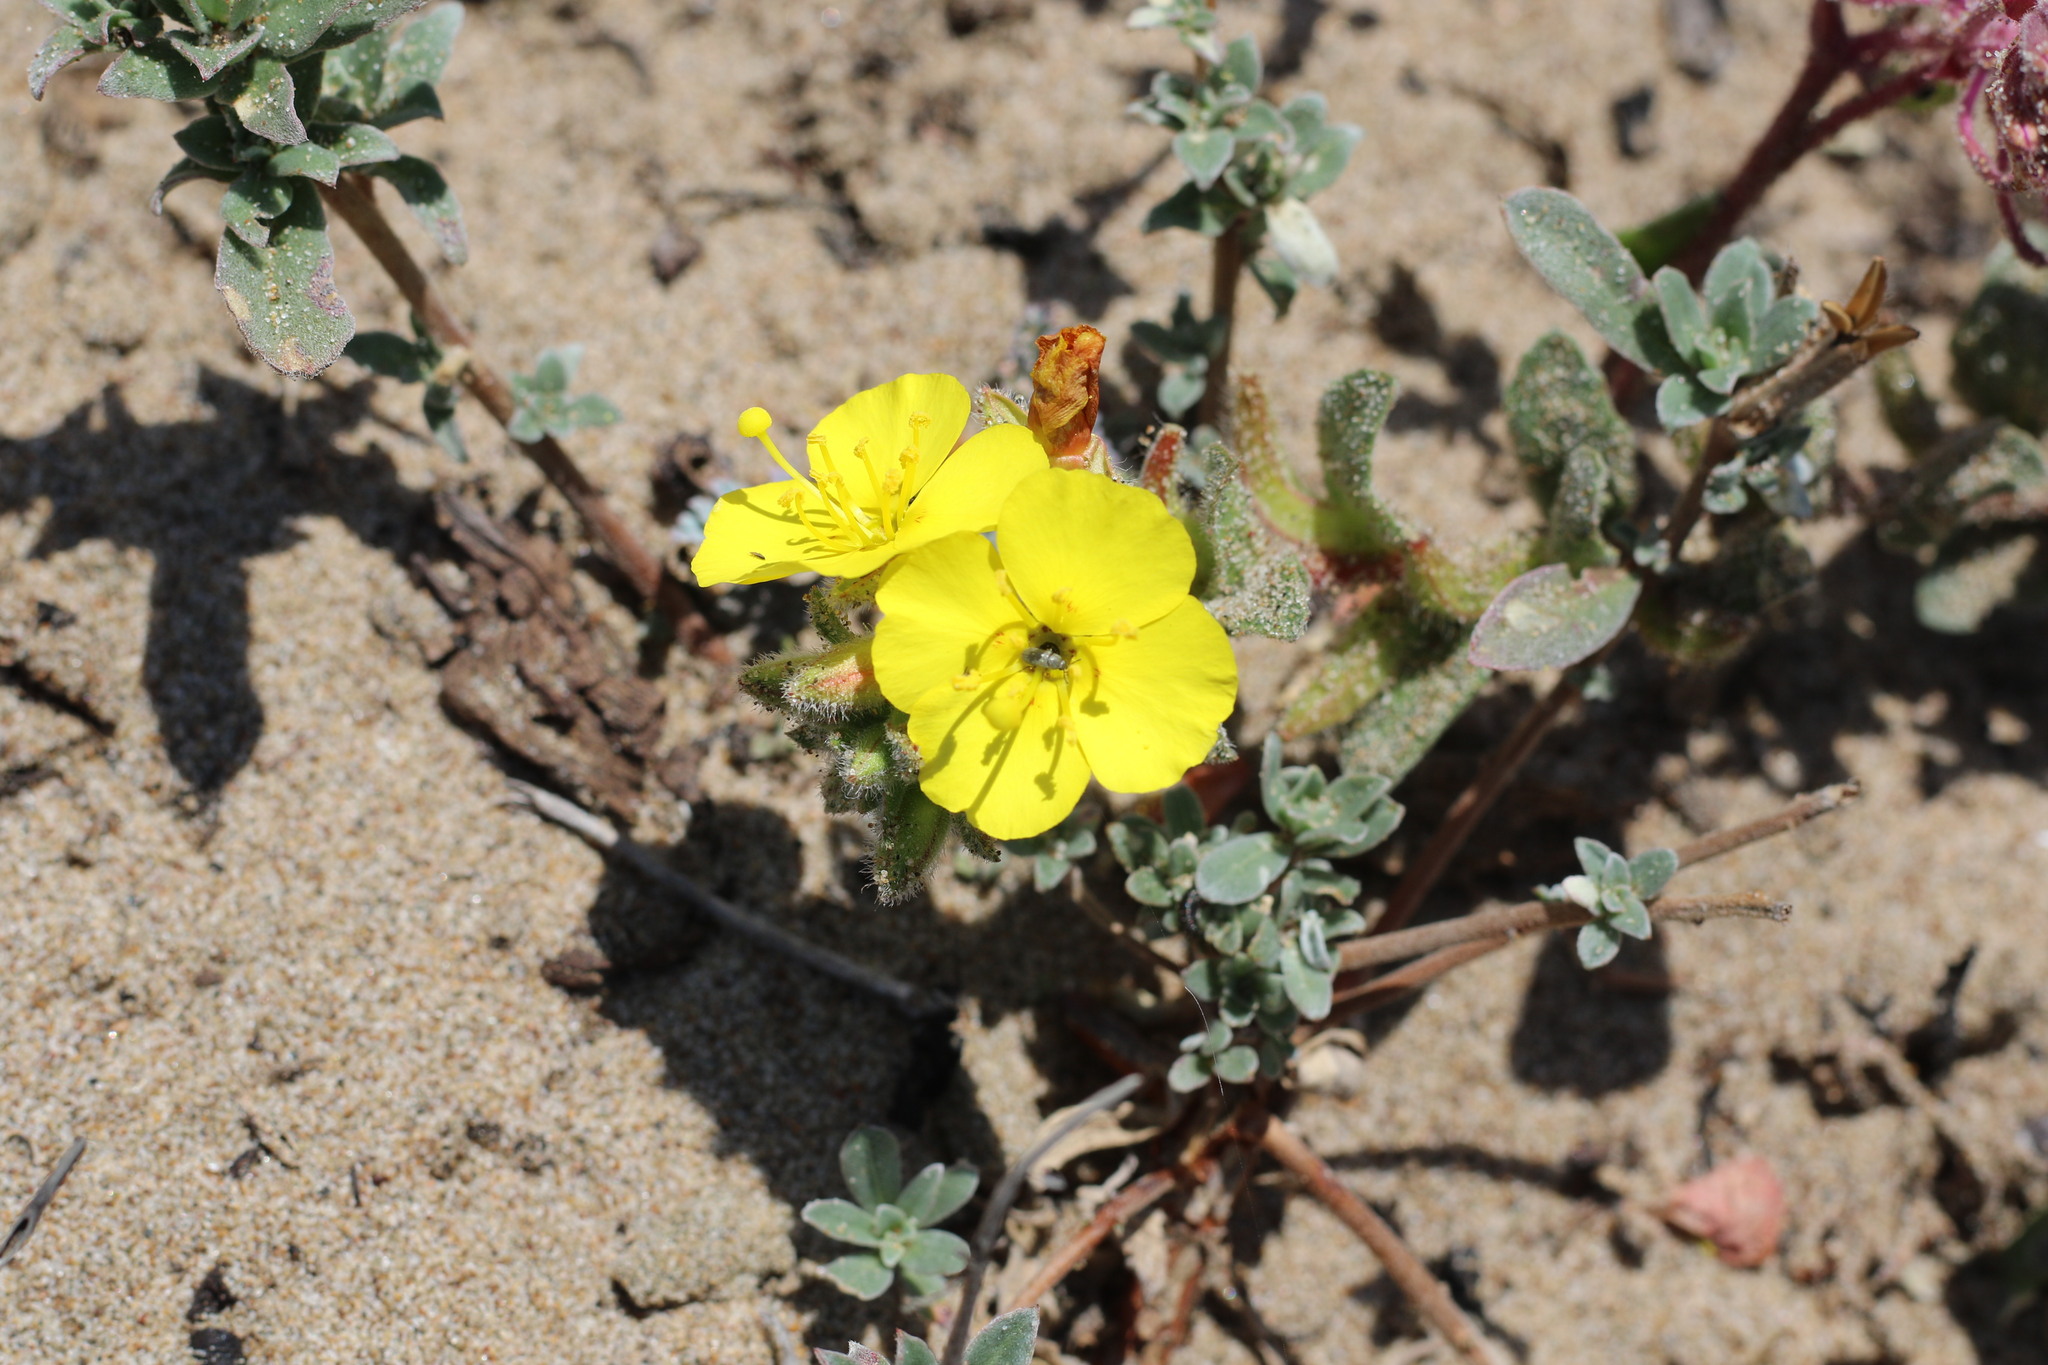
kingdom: Plantae
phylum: Tracheophyta
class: Magnoliopsida
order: Myrtales
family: Onagraceae
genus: Camissoniopsis
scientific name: Camissoniopsis cheiranthifolia
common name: Beach suncup
